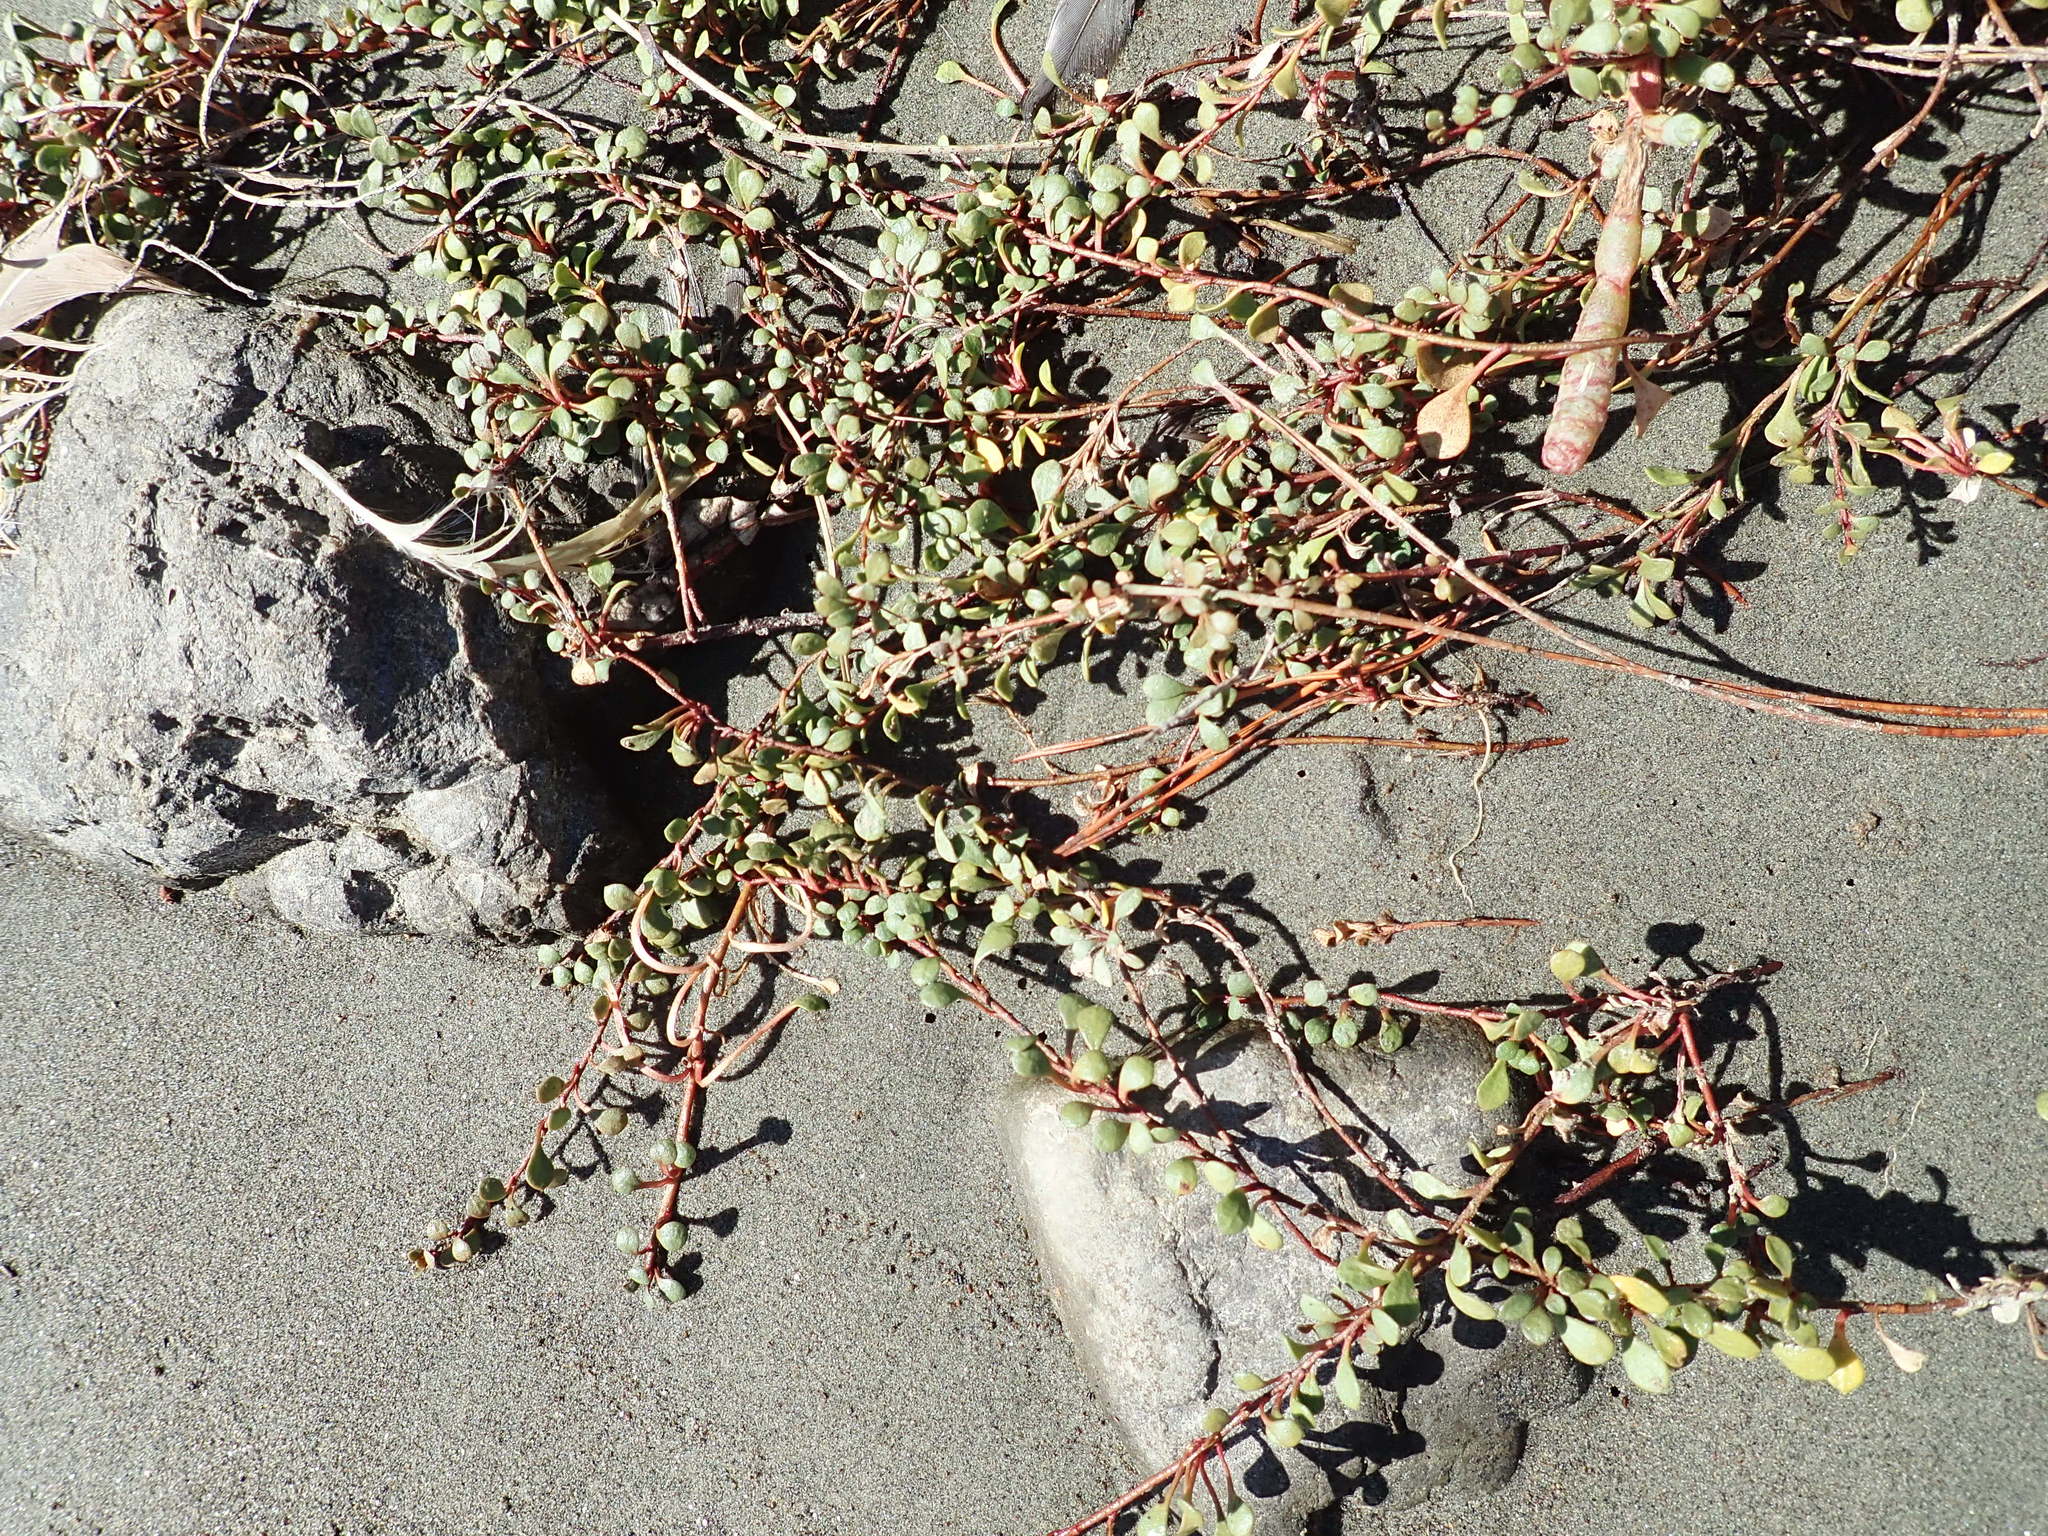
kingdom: Plantae
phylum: Tracheophyta
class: Magnoliopsida
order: Ericales
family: Primulaceae
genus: Samolus
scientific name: Samolus repens
